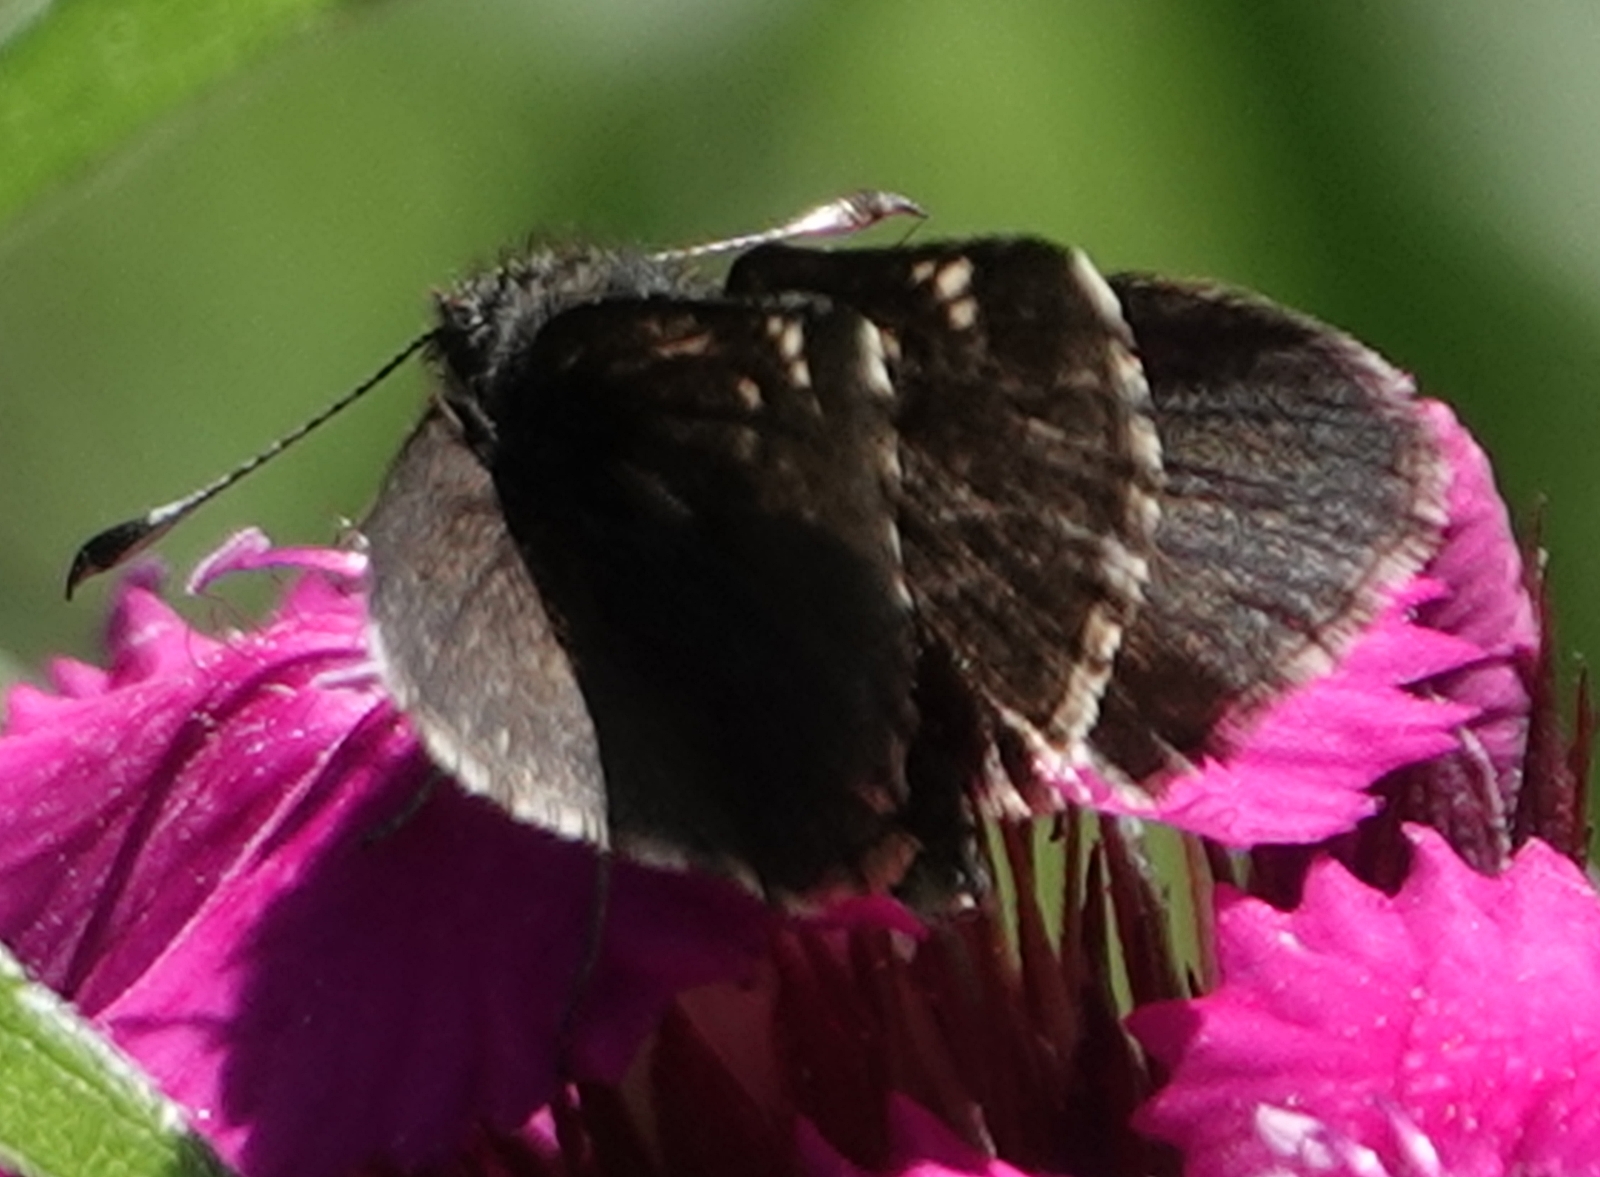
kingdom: Animalia
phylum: Arthropoda
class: Insecta
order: Lepidoptera
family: Hesperiidae
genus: Mastor
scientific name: Mastor vialis
